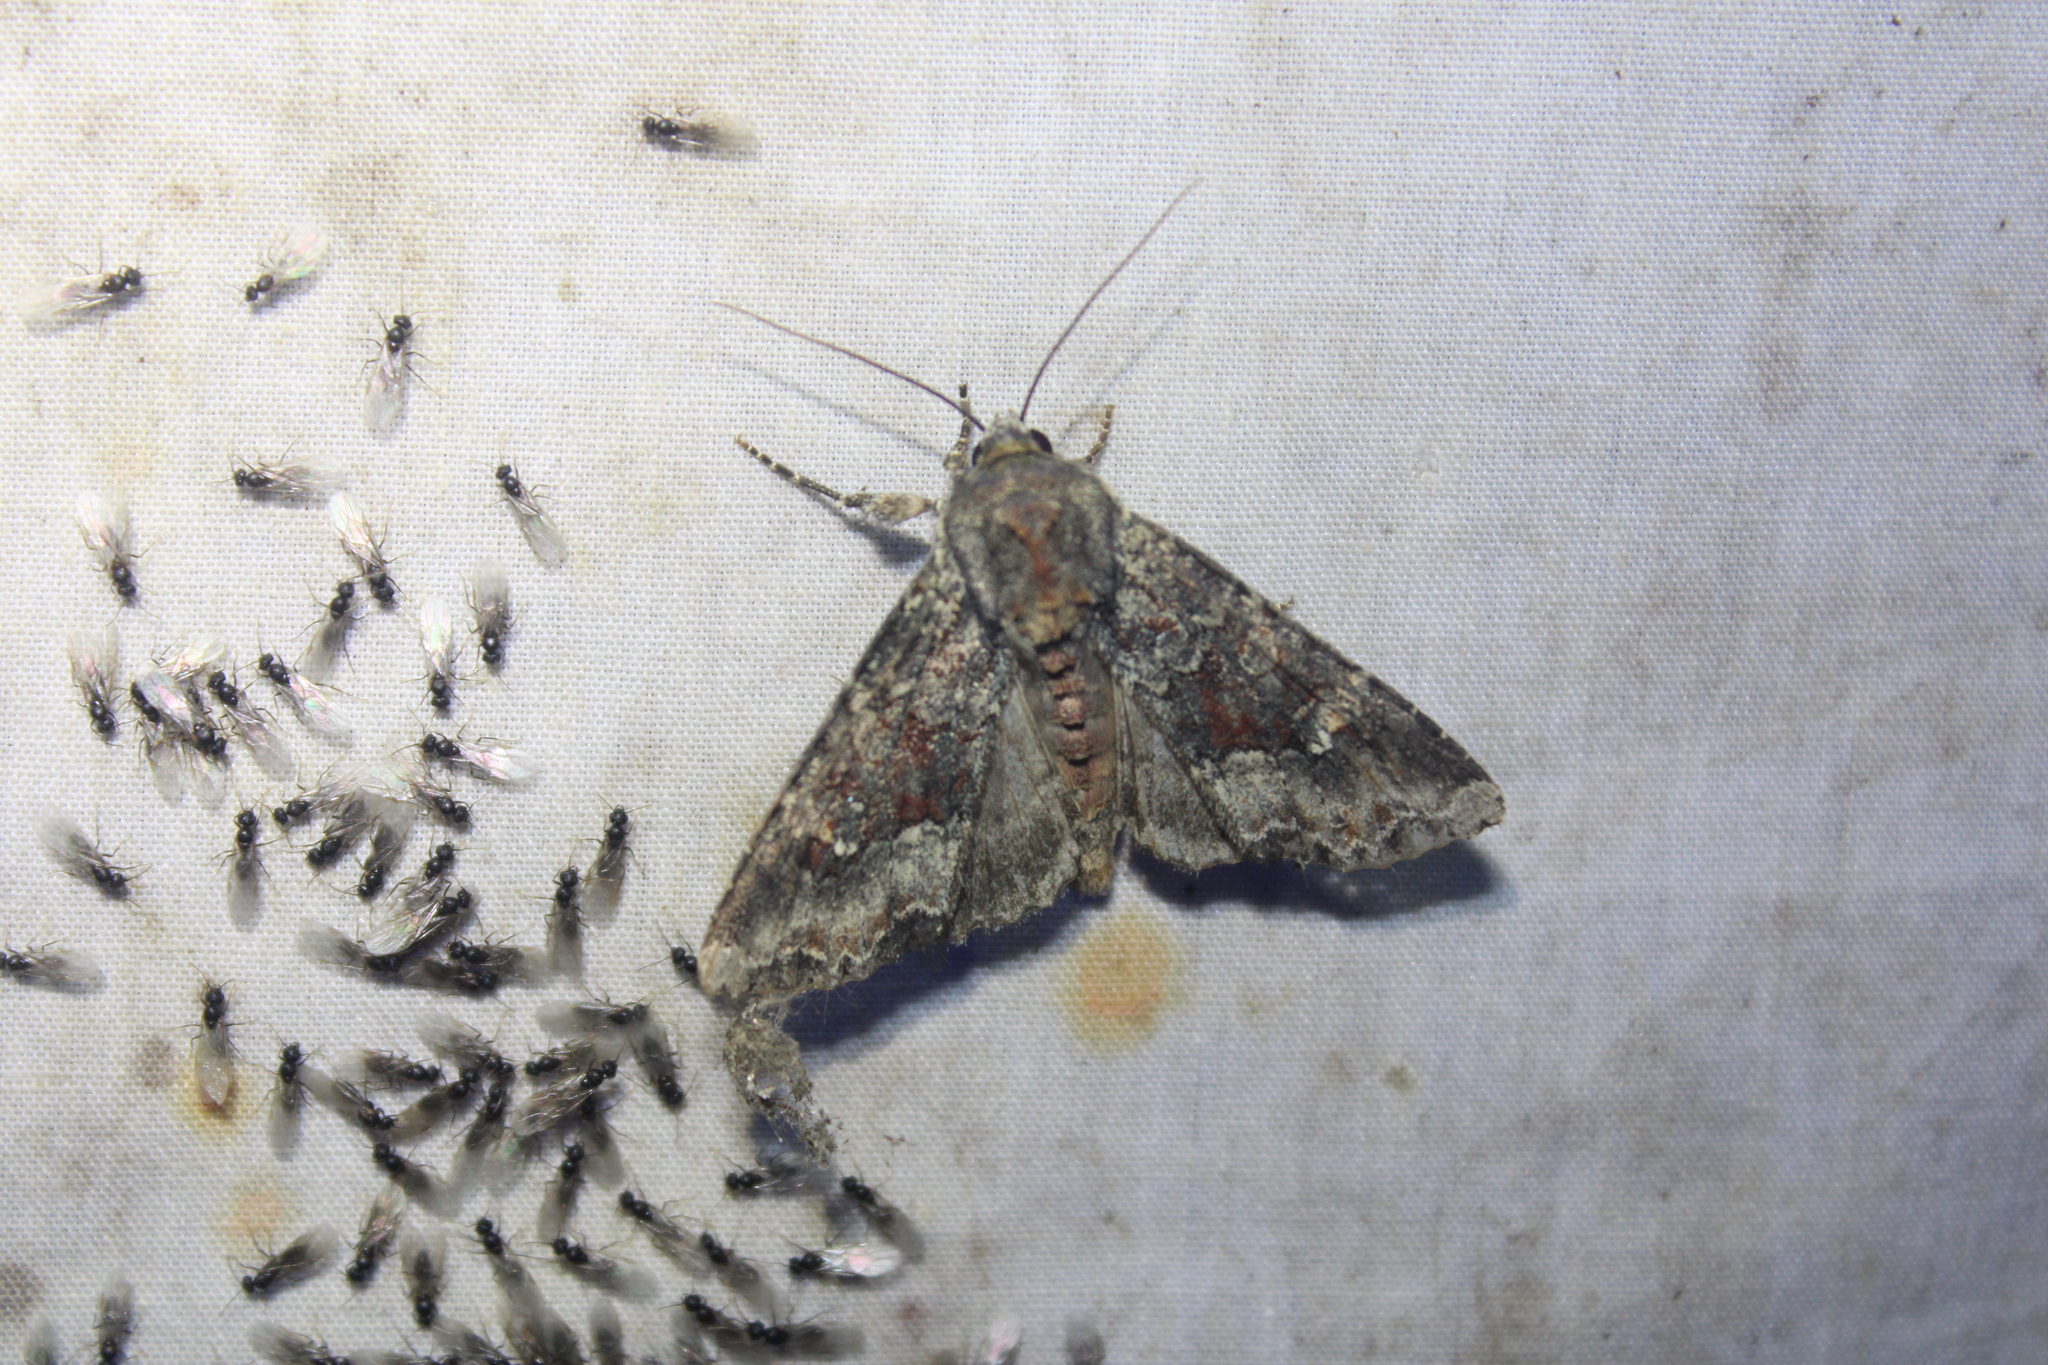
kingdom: Animalia
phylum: Arthropoda
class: Insecta
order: Lepidoptera
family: Noctuidae
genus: Apamea
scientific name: Apamea amputatrix
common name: Yellow-headed cutworm moth
